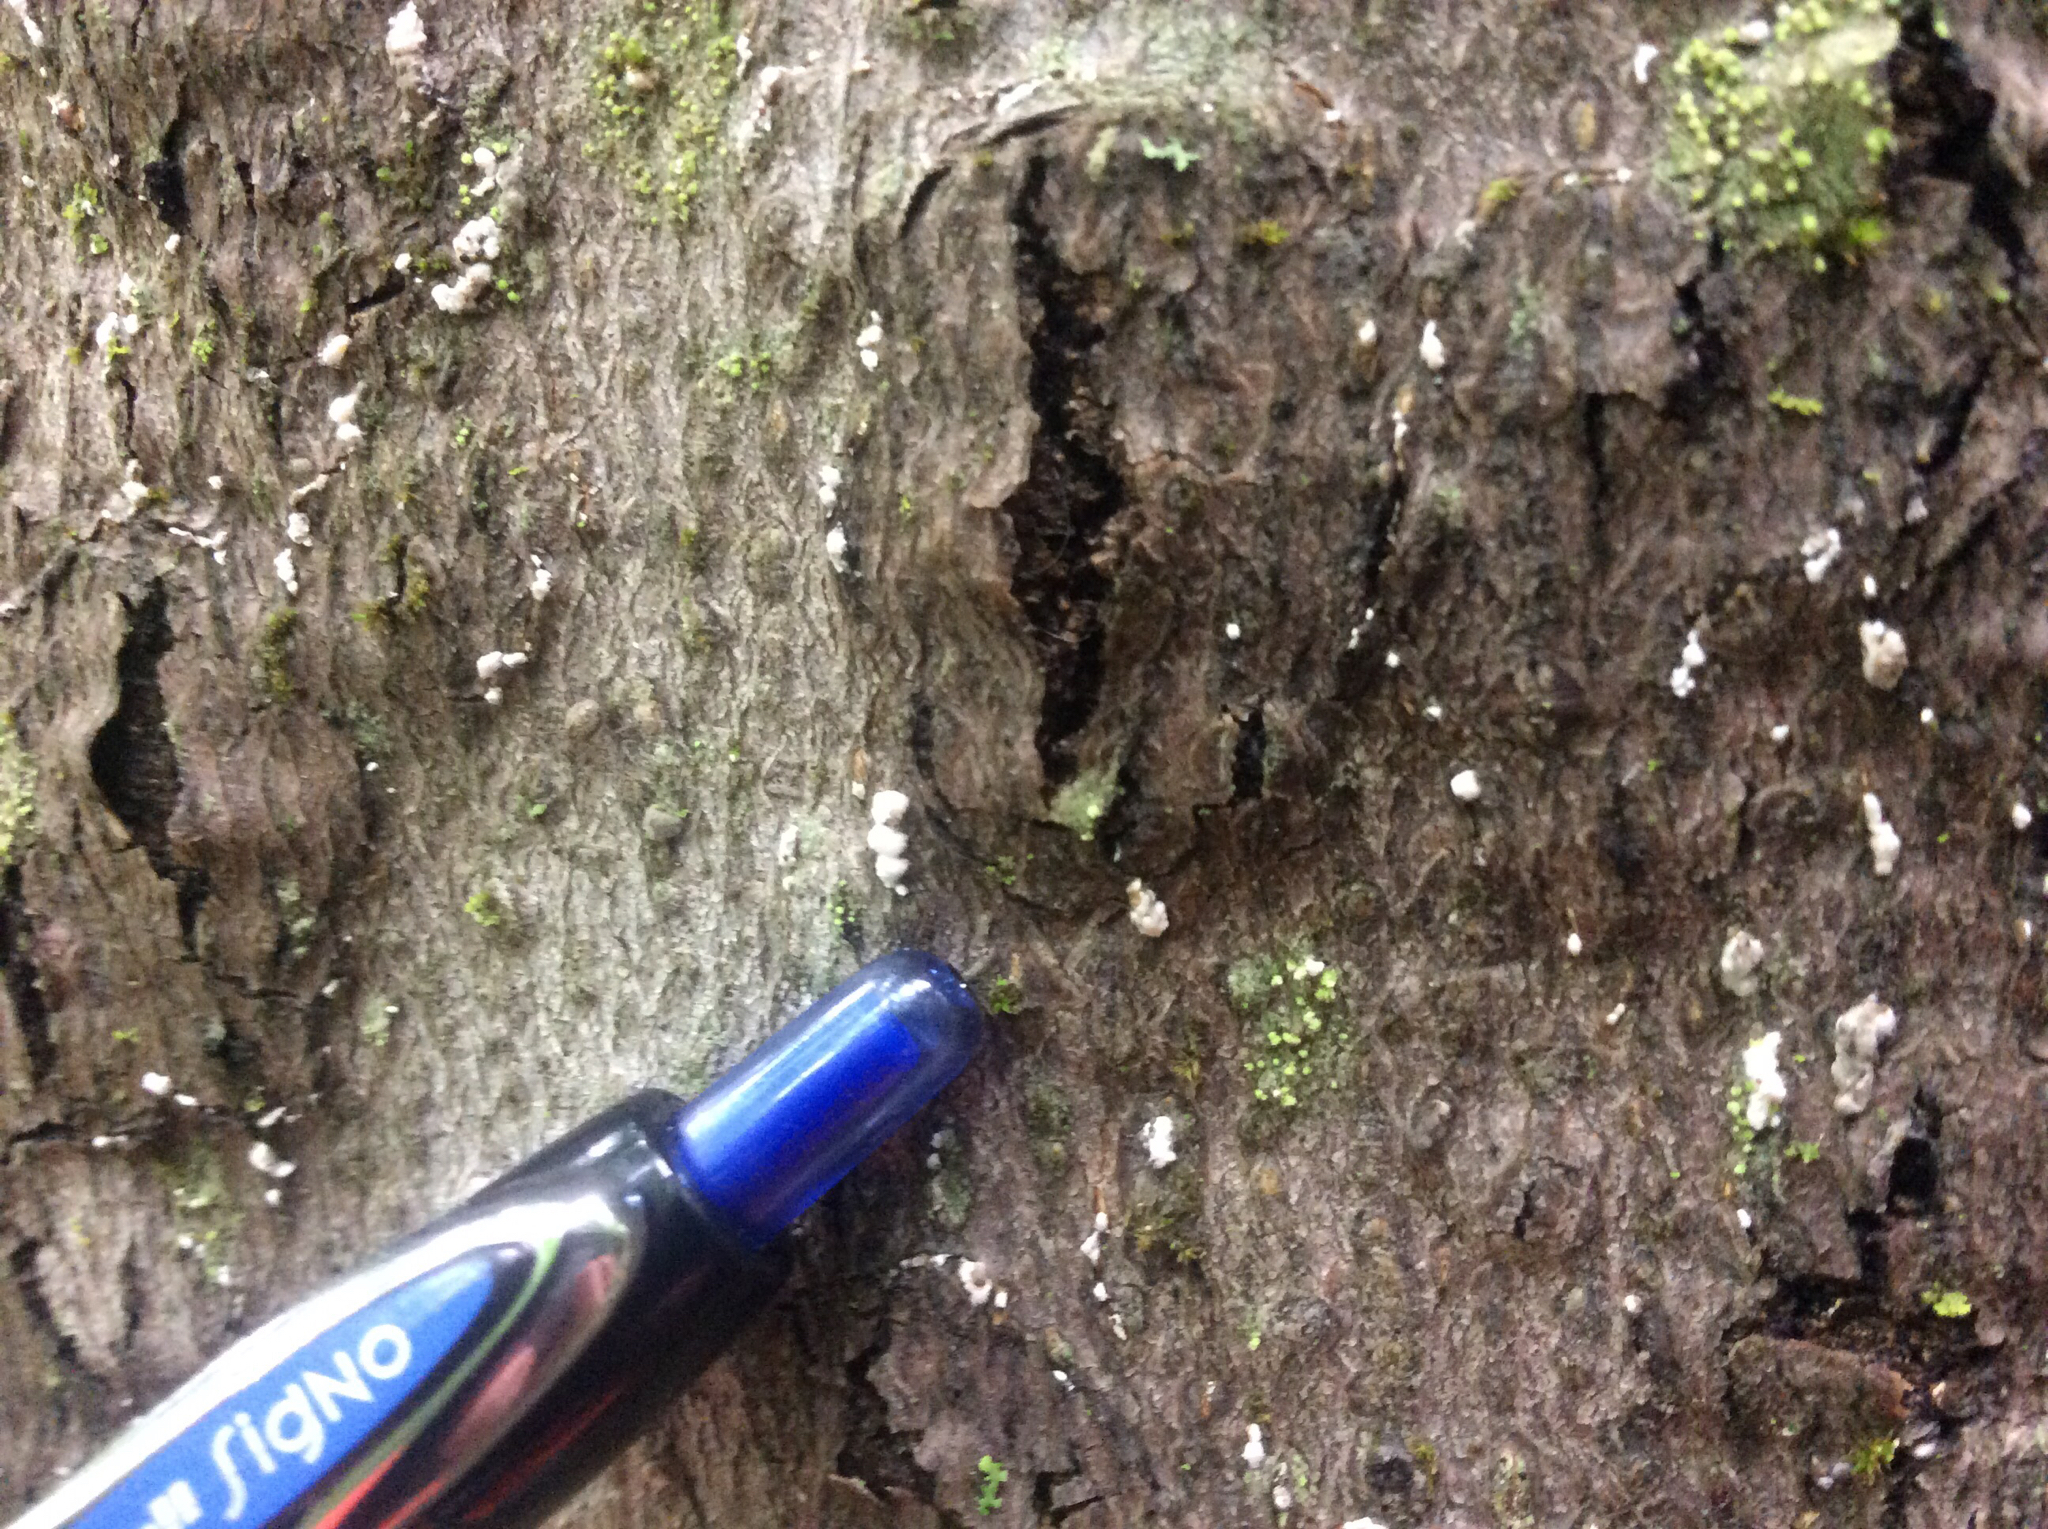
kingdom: Animalia
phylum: Arthropoda
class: Insecta
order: Hemiptera
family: Eriococcidae
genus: Cryptococcus
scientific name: Cryptococcus fagisuga
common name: Beech scale
